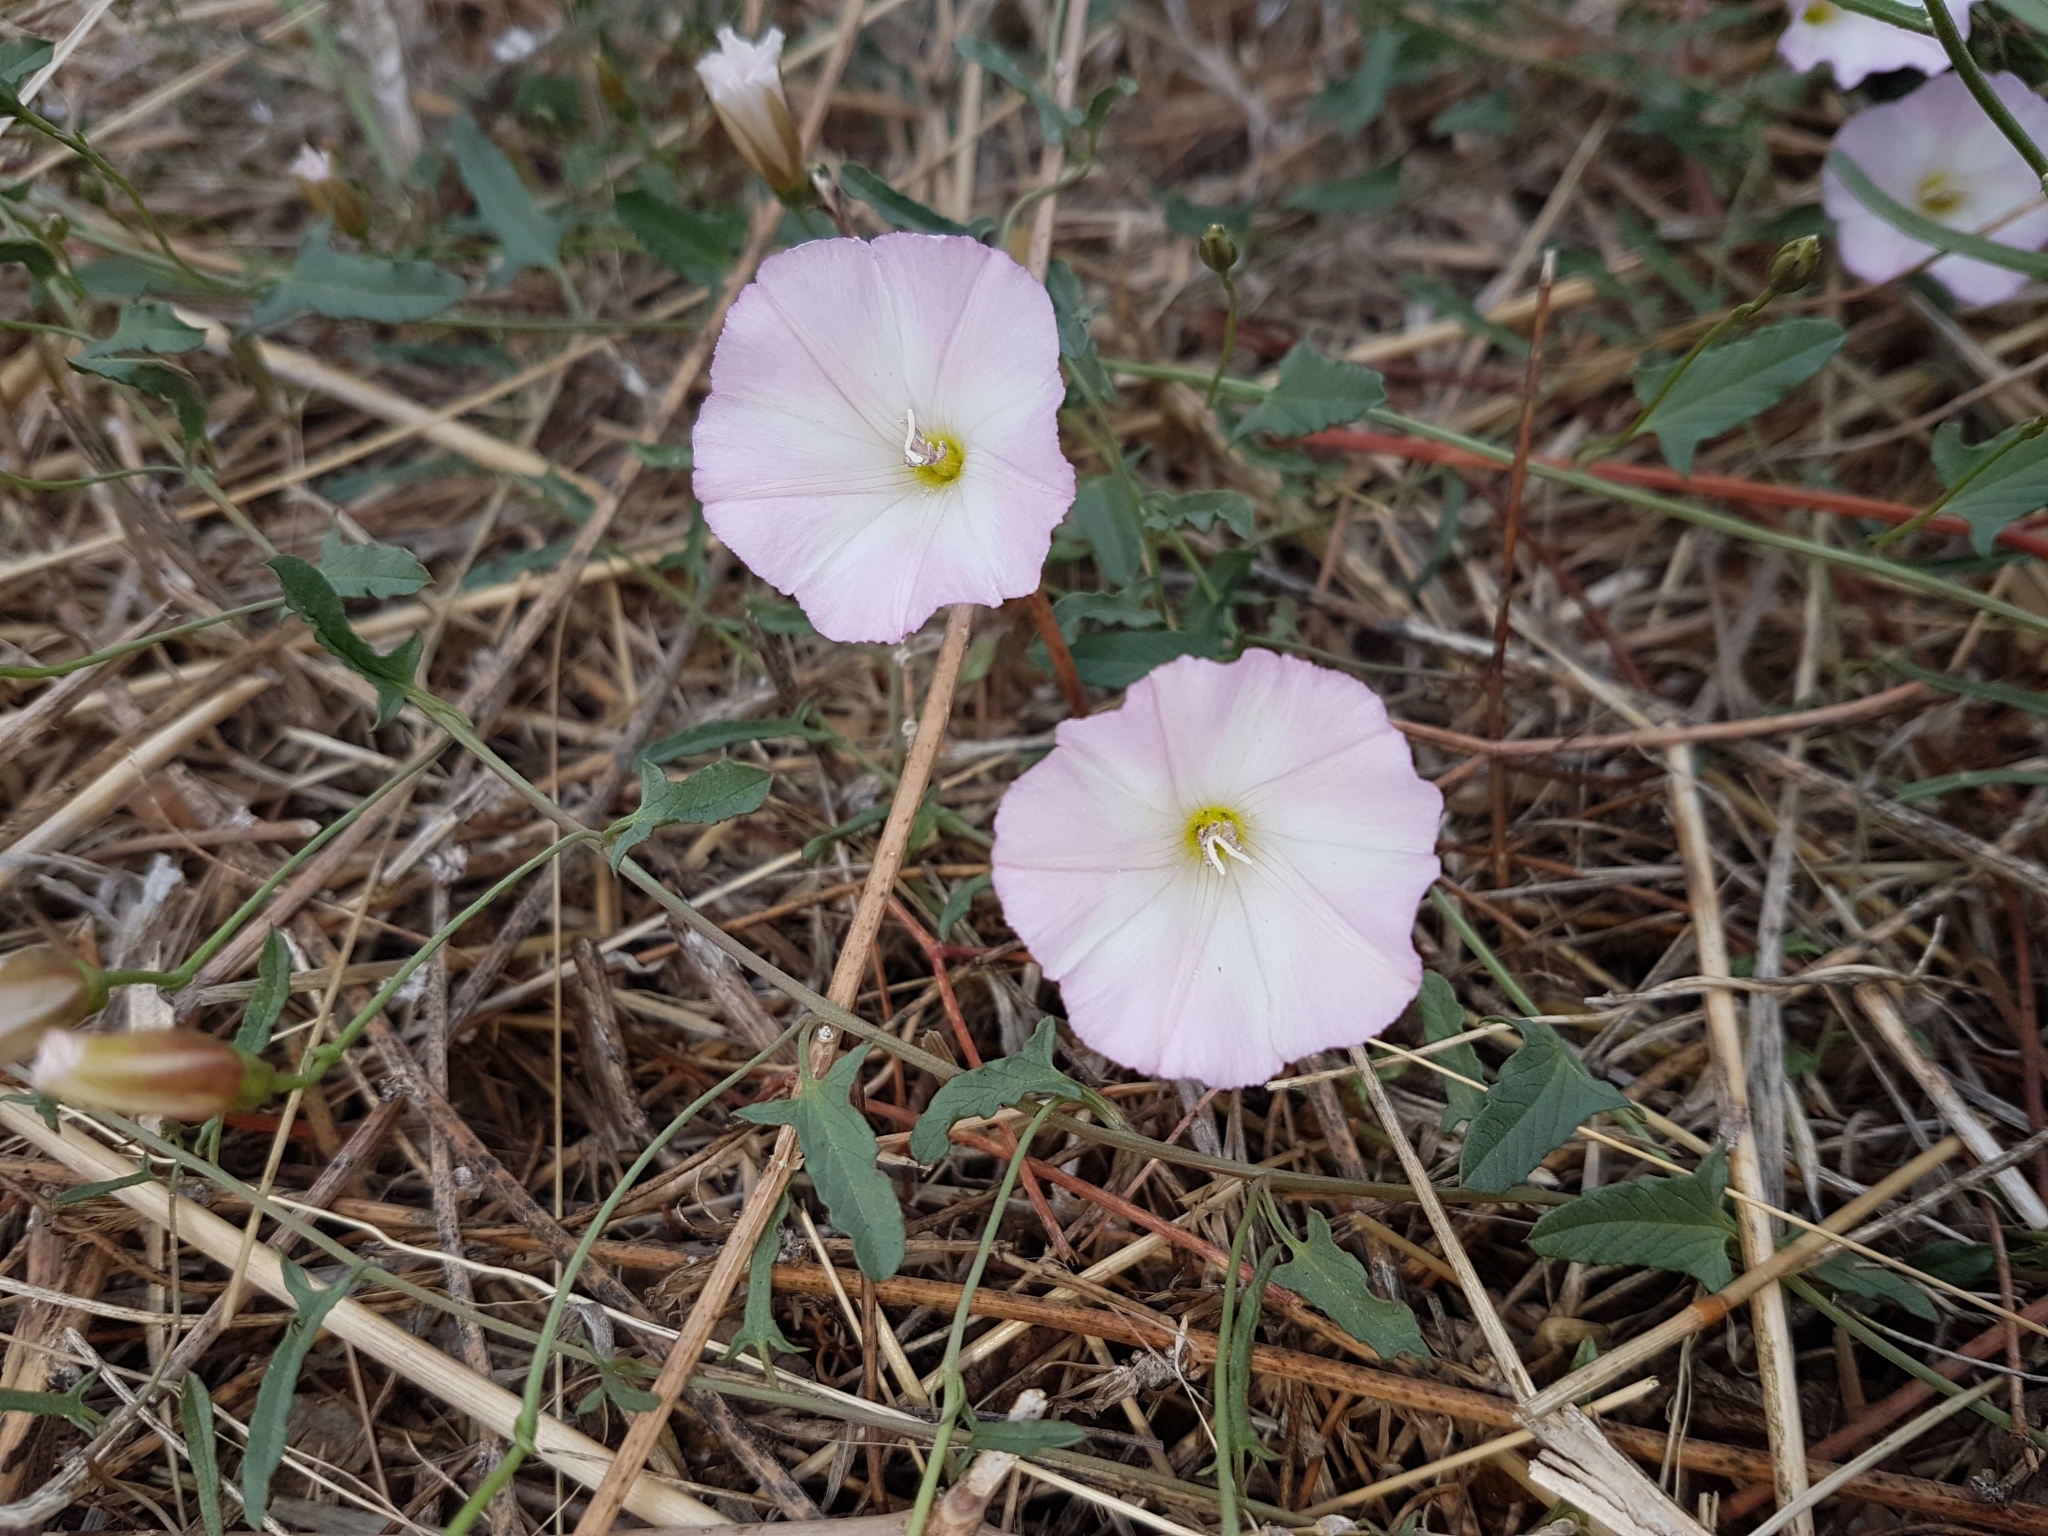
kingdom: Plantae
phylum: Tracheophyta
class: Magnoliopsida
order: Solanales
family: Convolvulaceae
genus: Convolvulus
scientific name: Convolvulus arvensis
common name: Field bindweed
